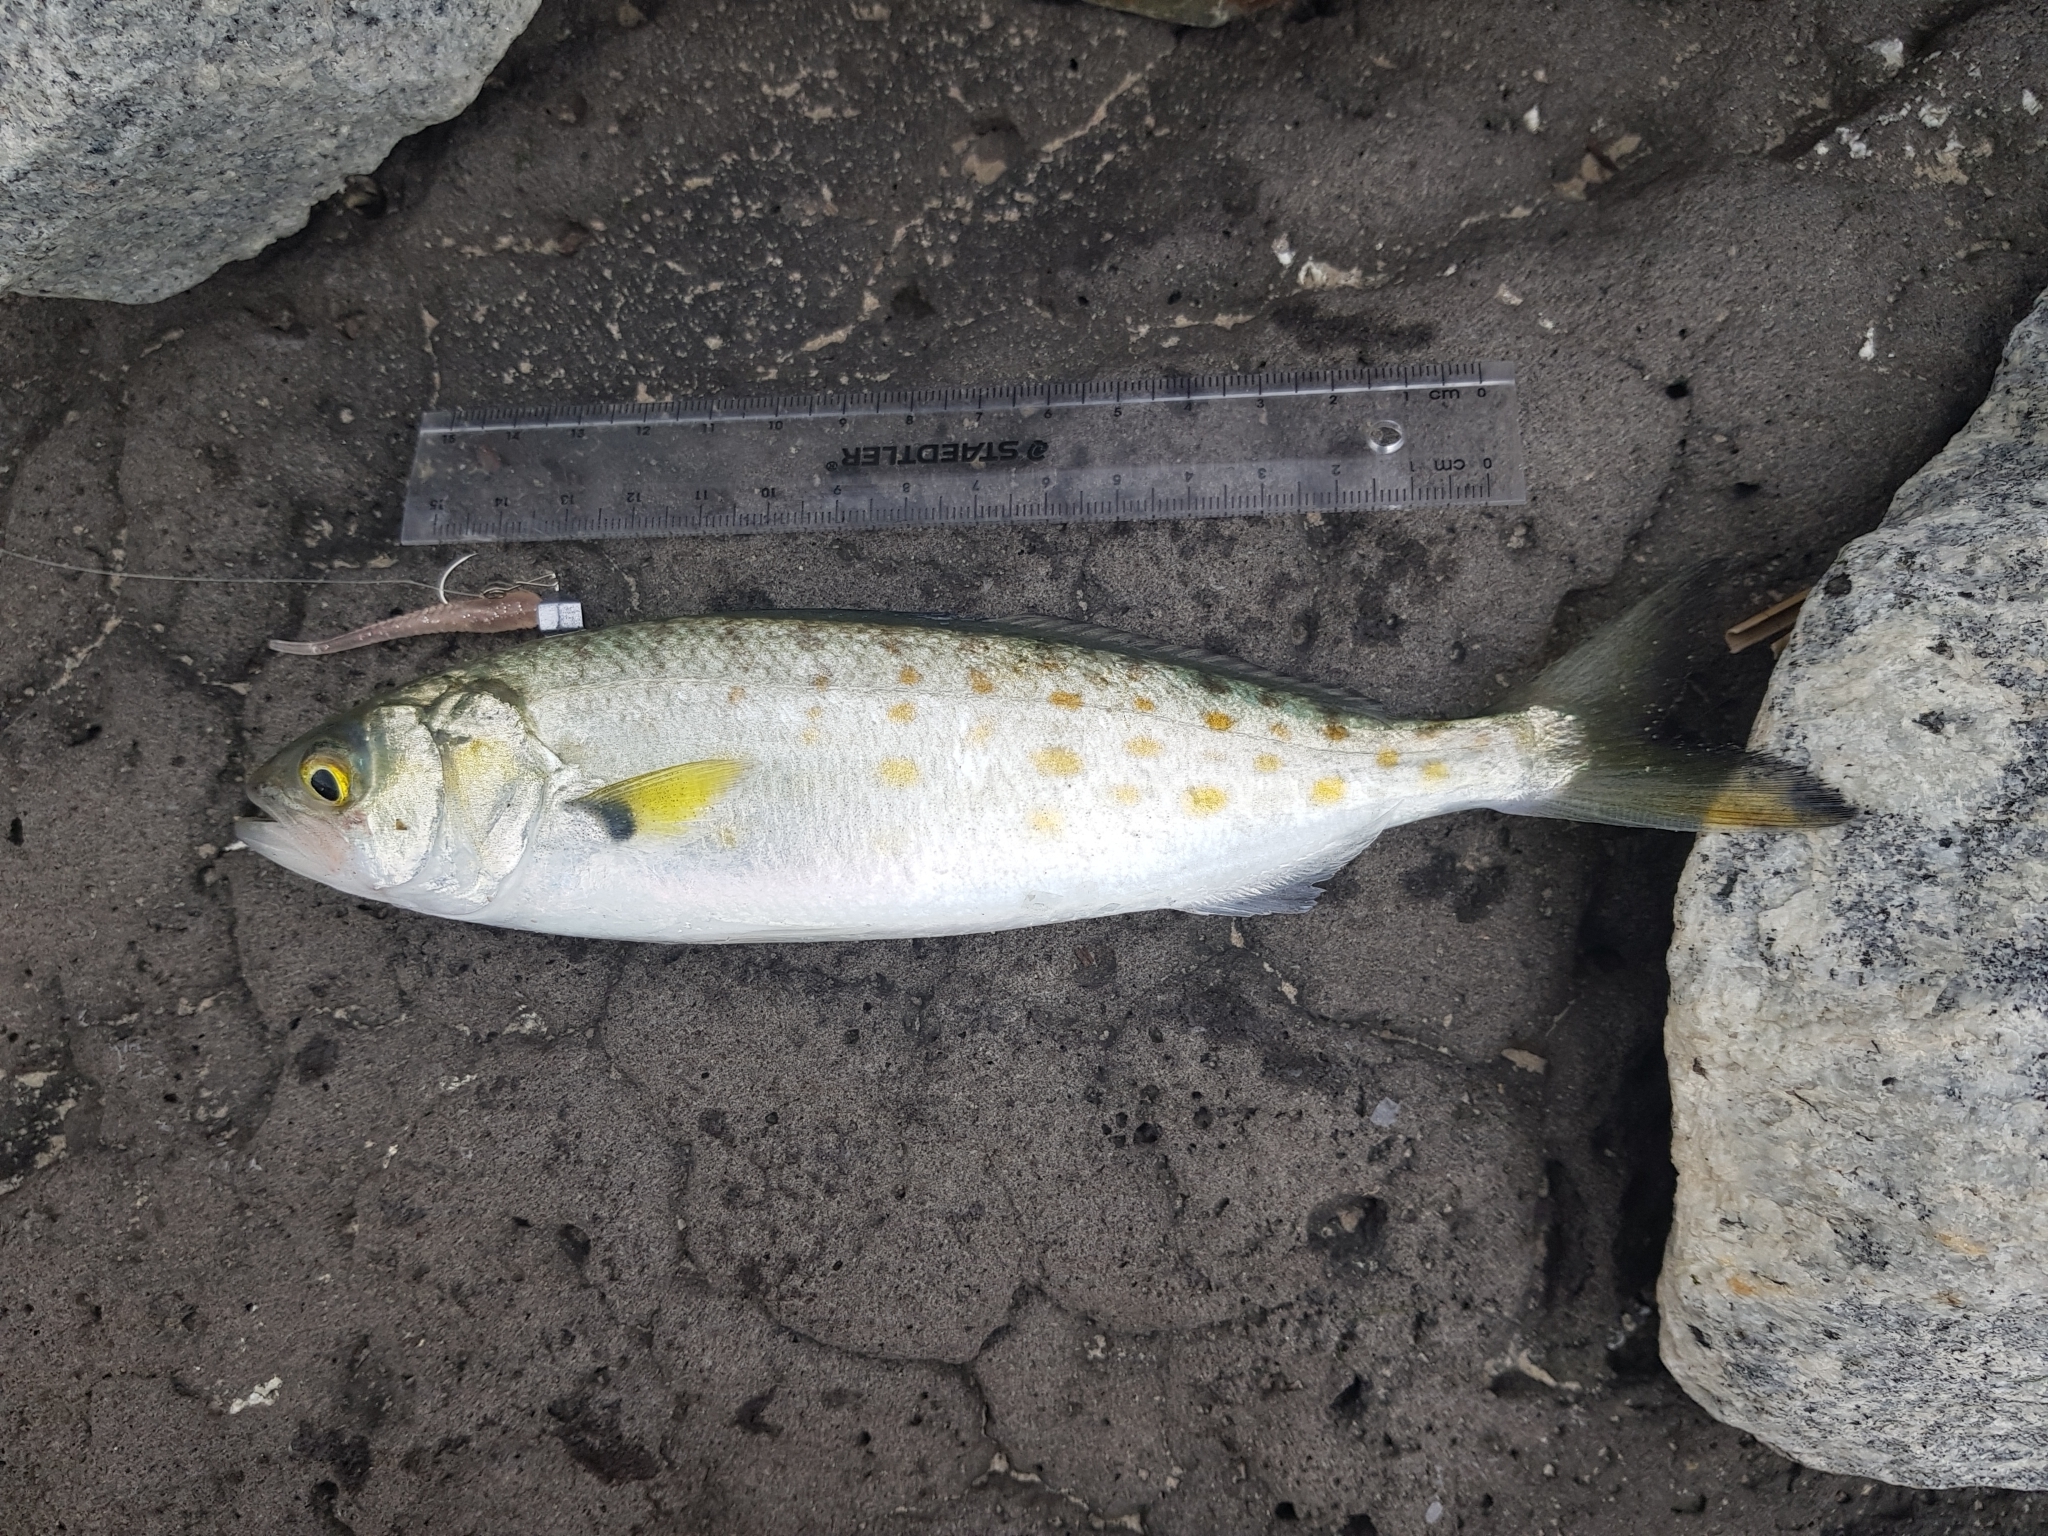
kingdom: Animalia
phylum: Chordata
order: Perciformes
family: Arripidae
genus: Arripis
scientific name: Arripis trutta
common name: Kahawai
